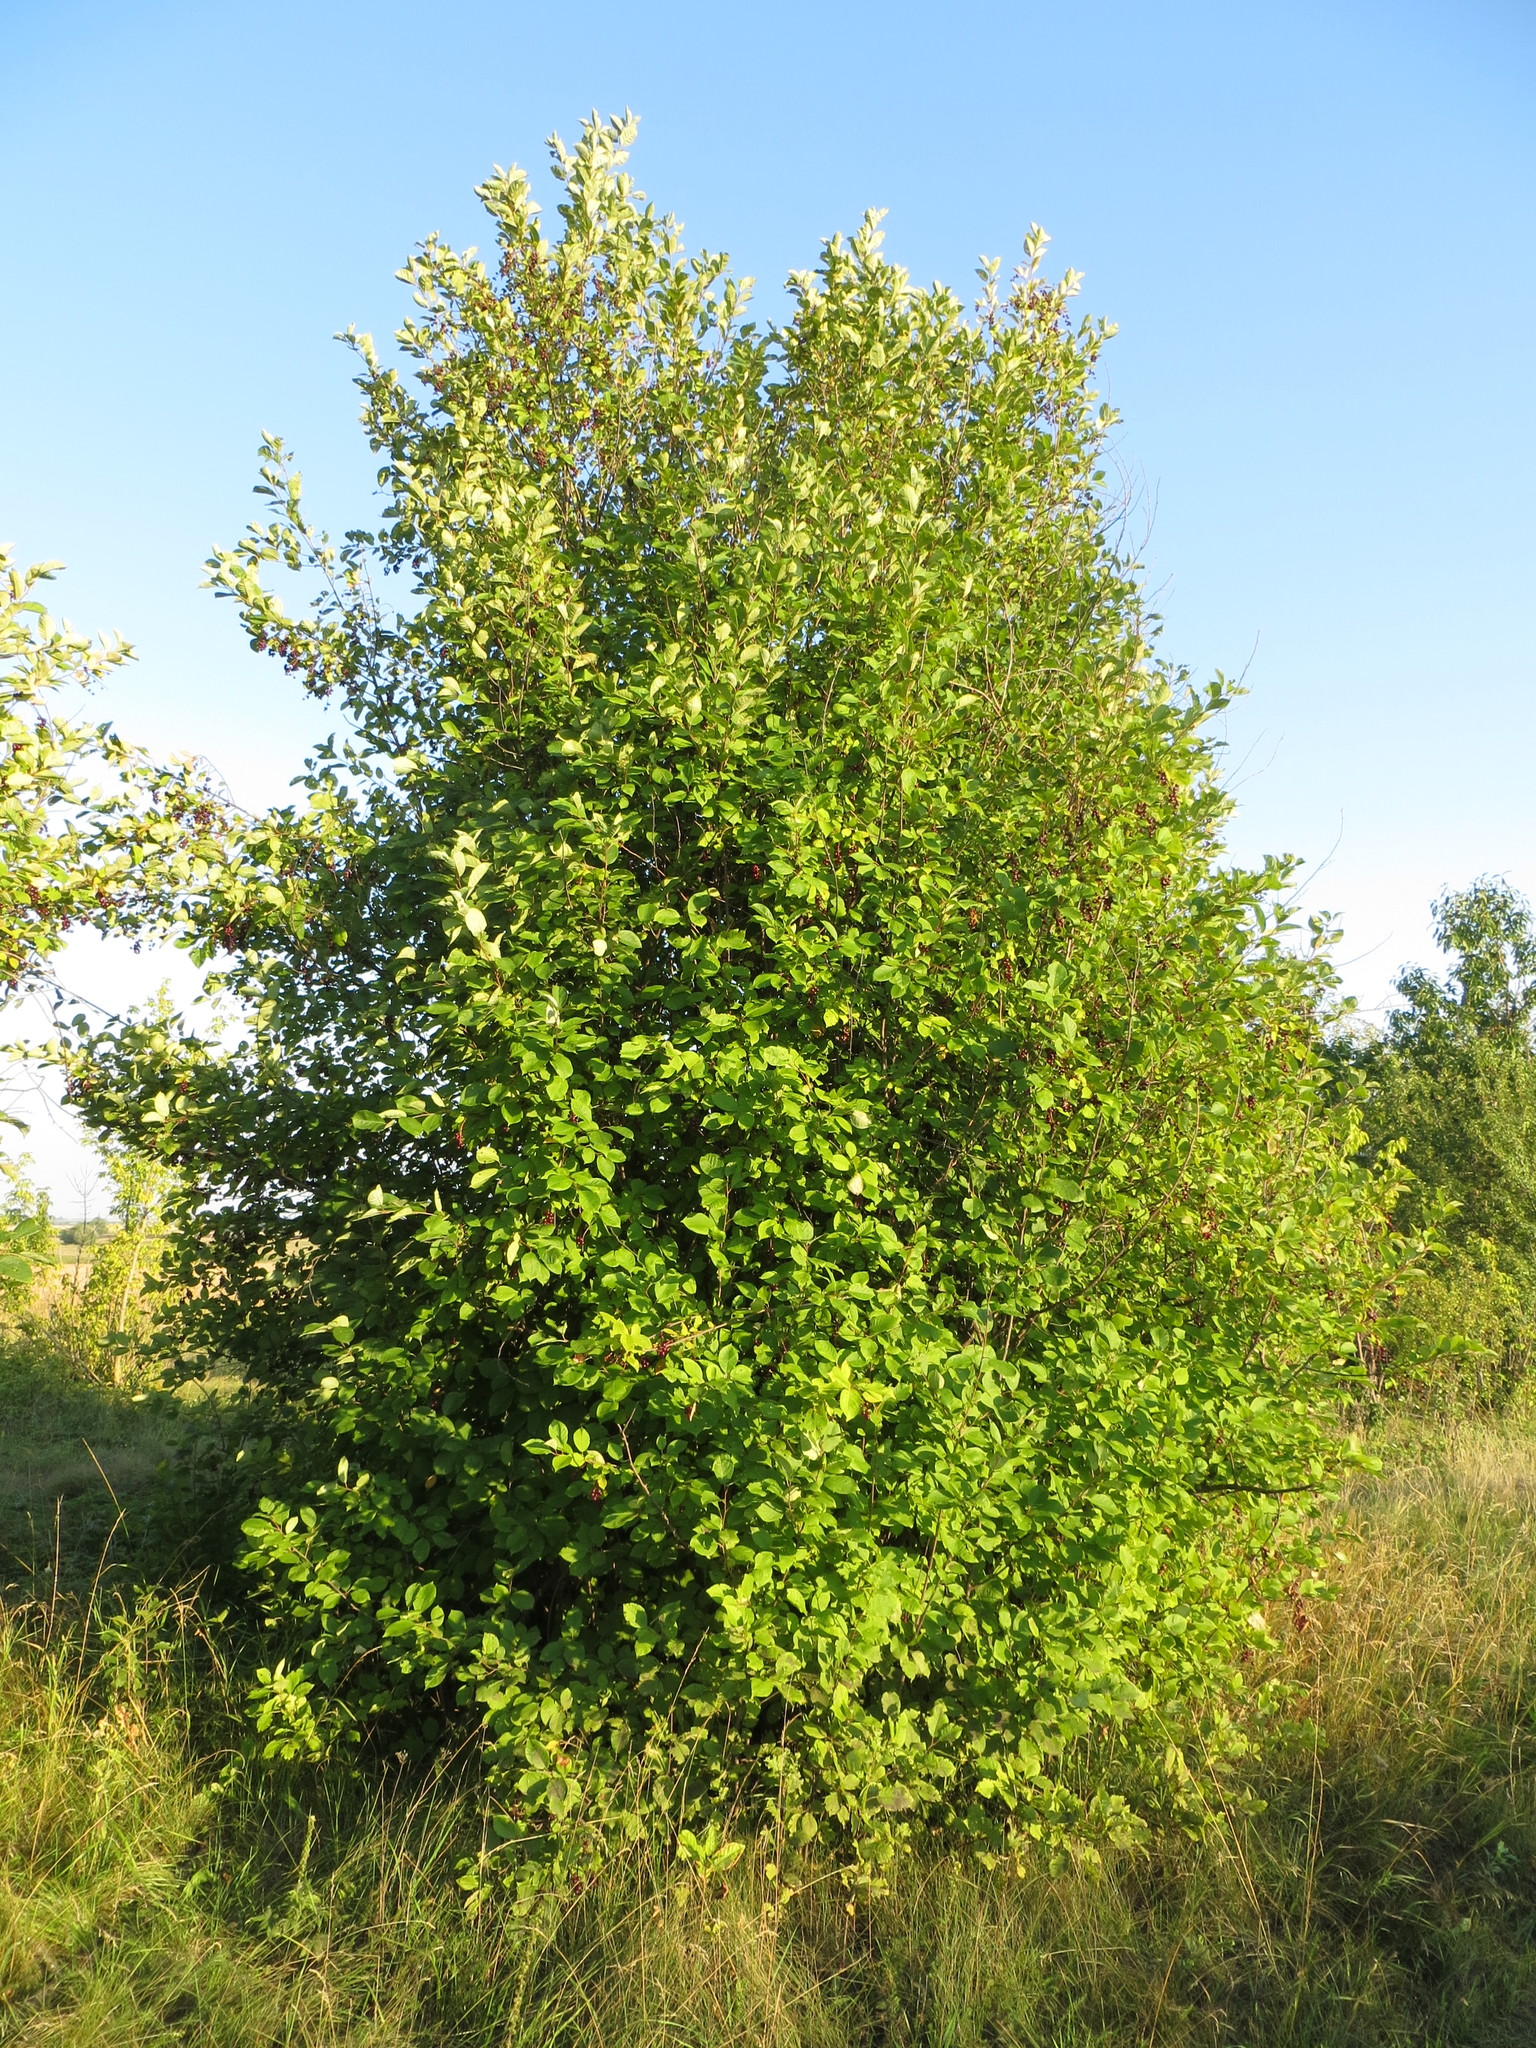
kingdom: Plantae
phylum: Tracheophyta
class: Magnoliopsida
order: Rosales
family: Rosaceae
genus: Prunus
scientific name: Prunus virginiana
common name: Chokecherry
